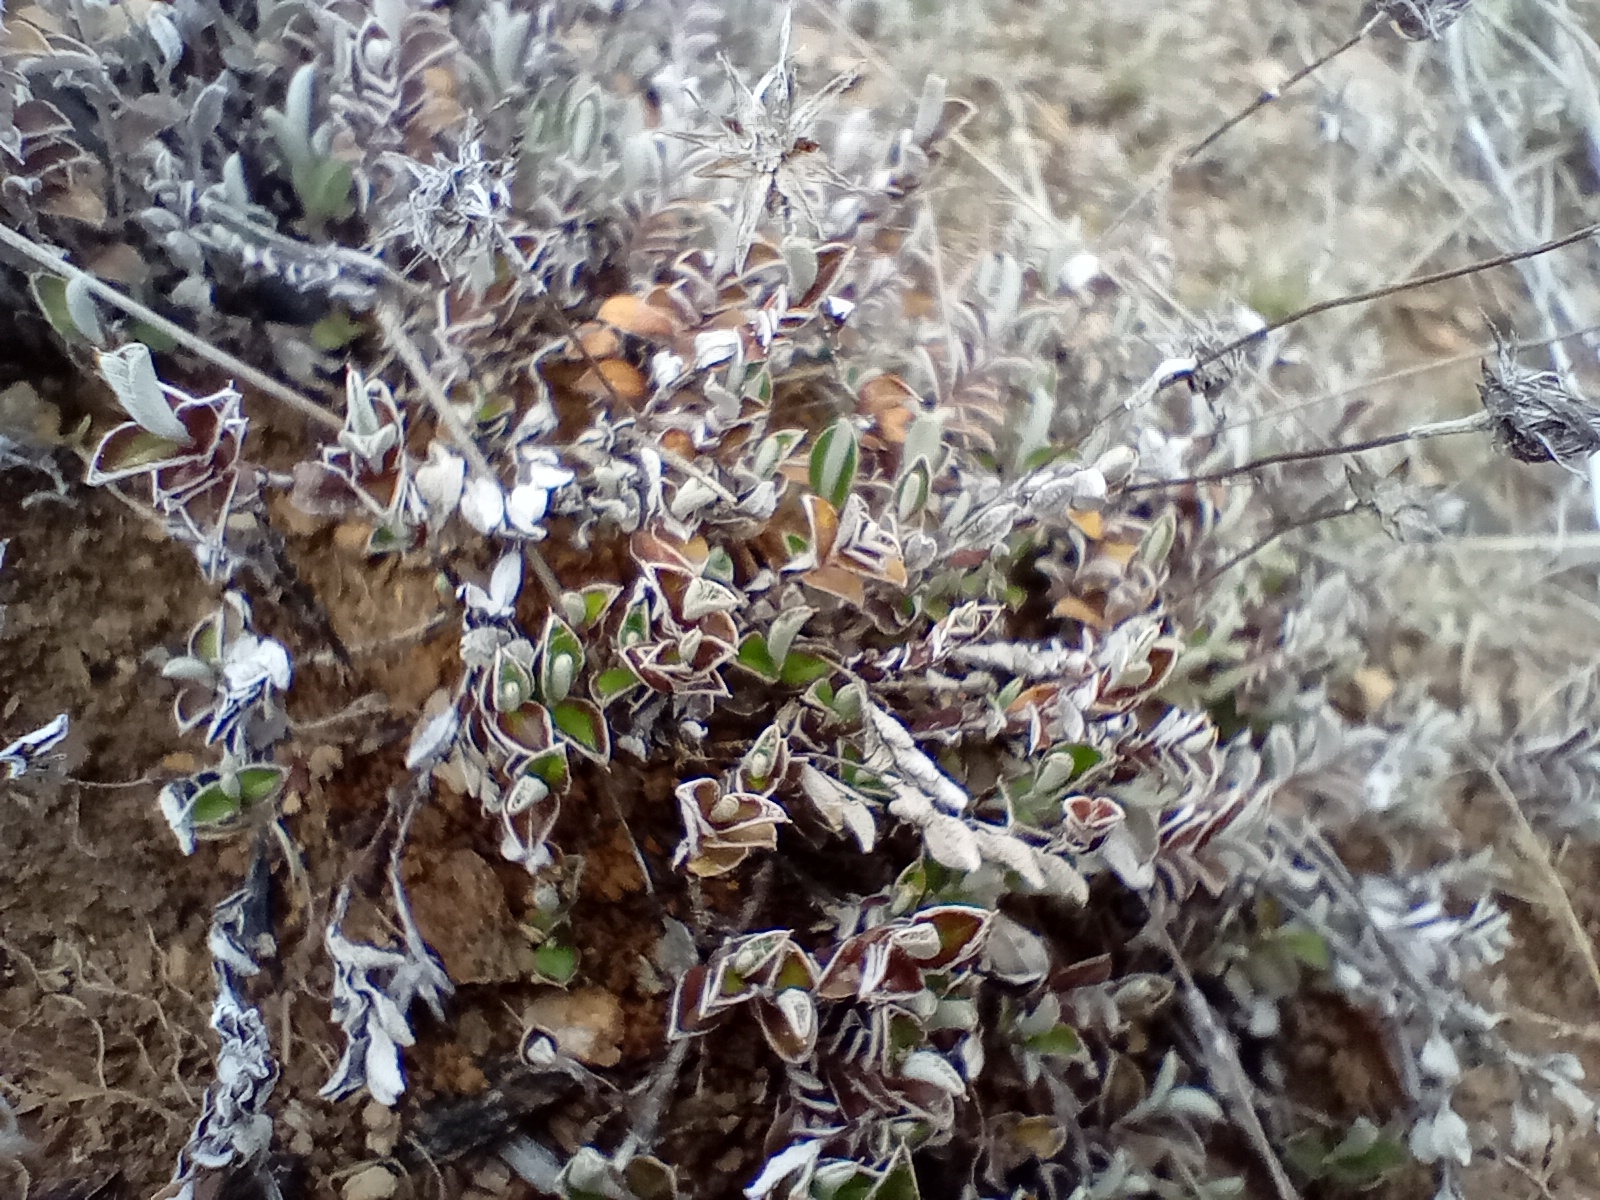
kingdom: Plantae
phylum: Tracheophyta
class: Magnoliopsida
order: Asterales
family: Asteraceae
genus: Helichrysum
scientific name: Helichrysum filicaule
